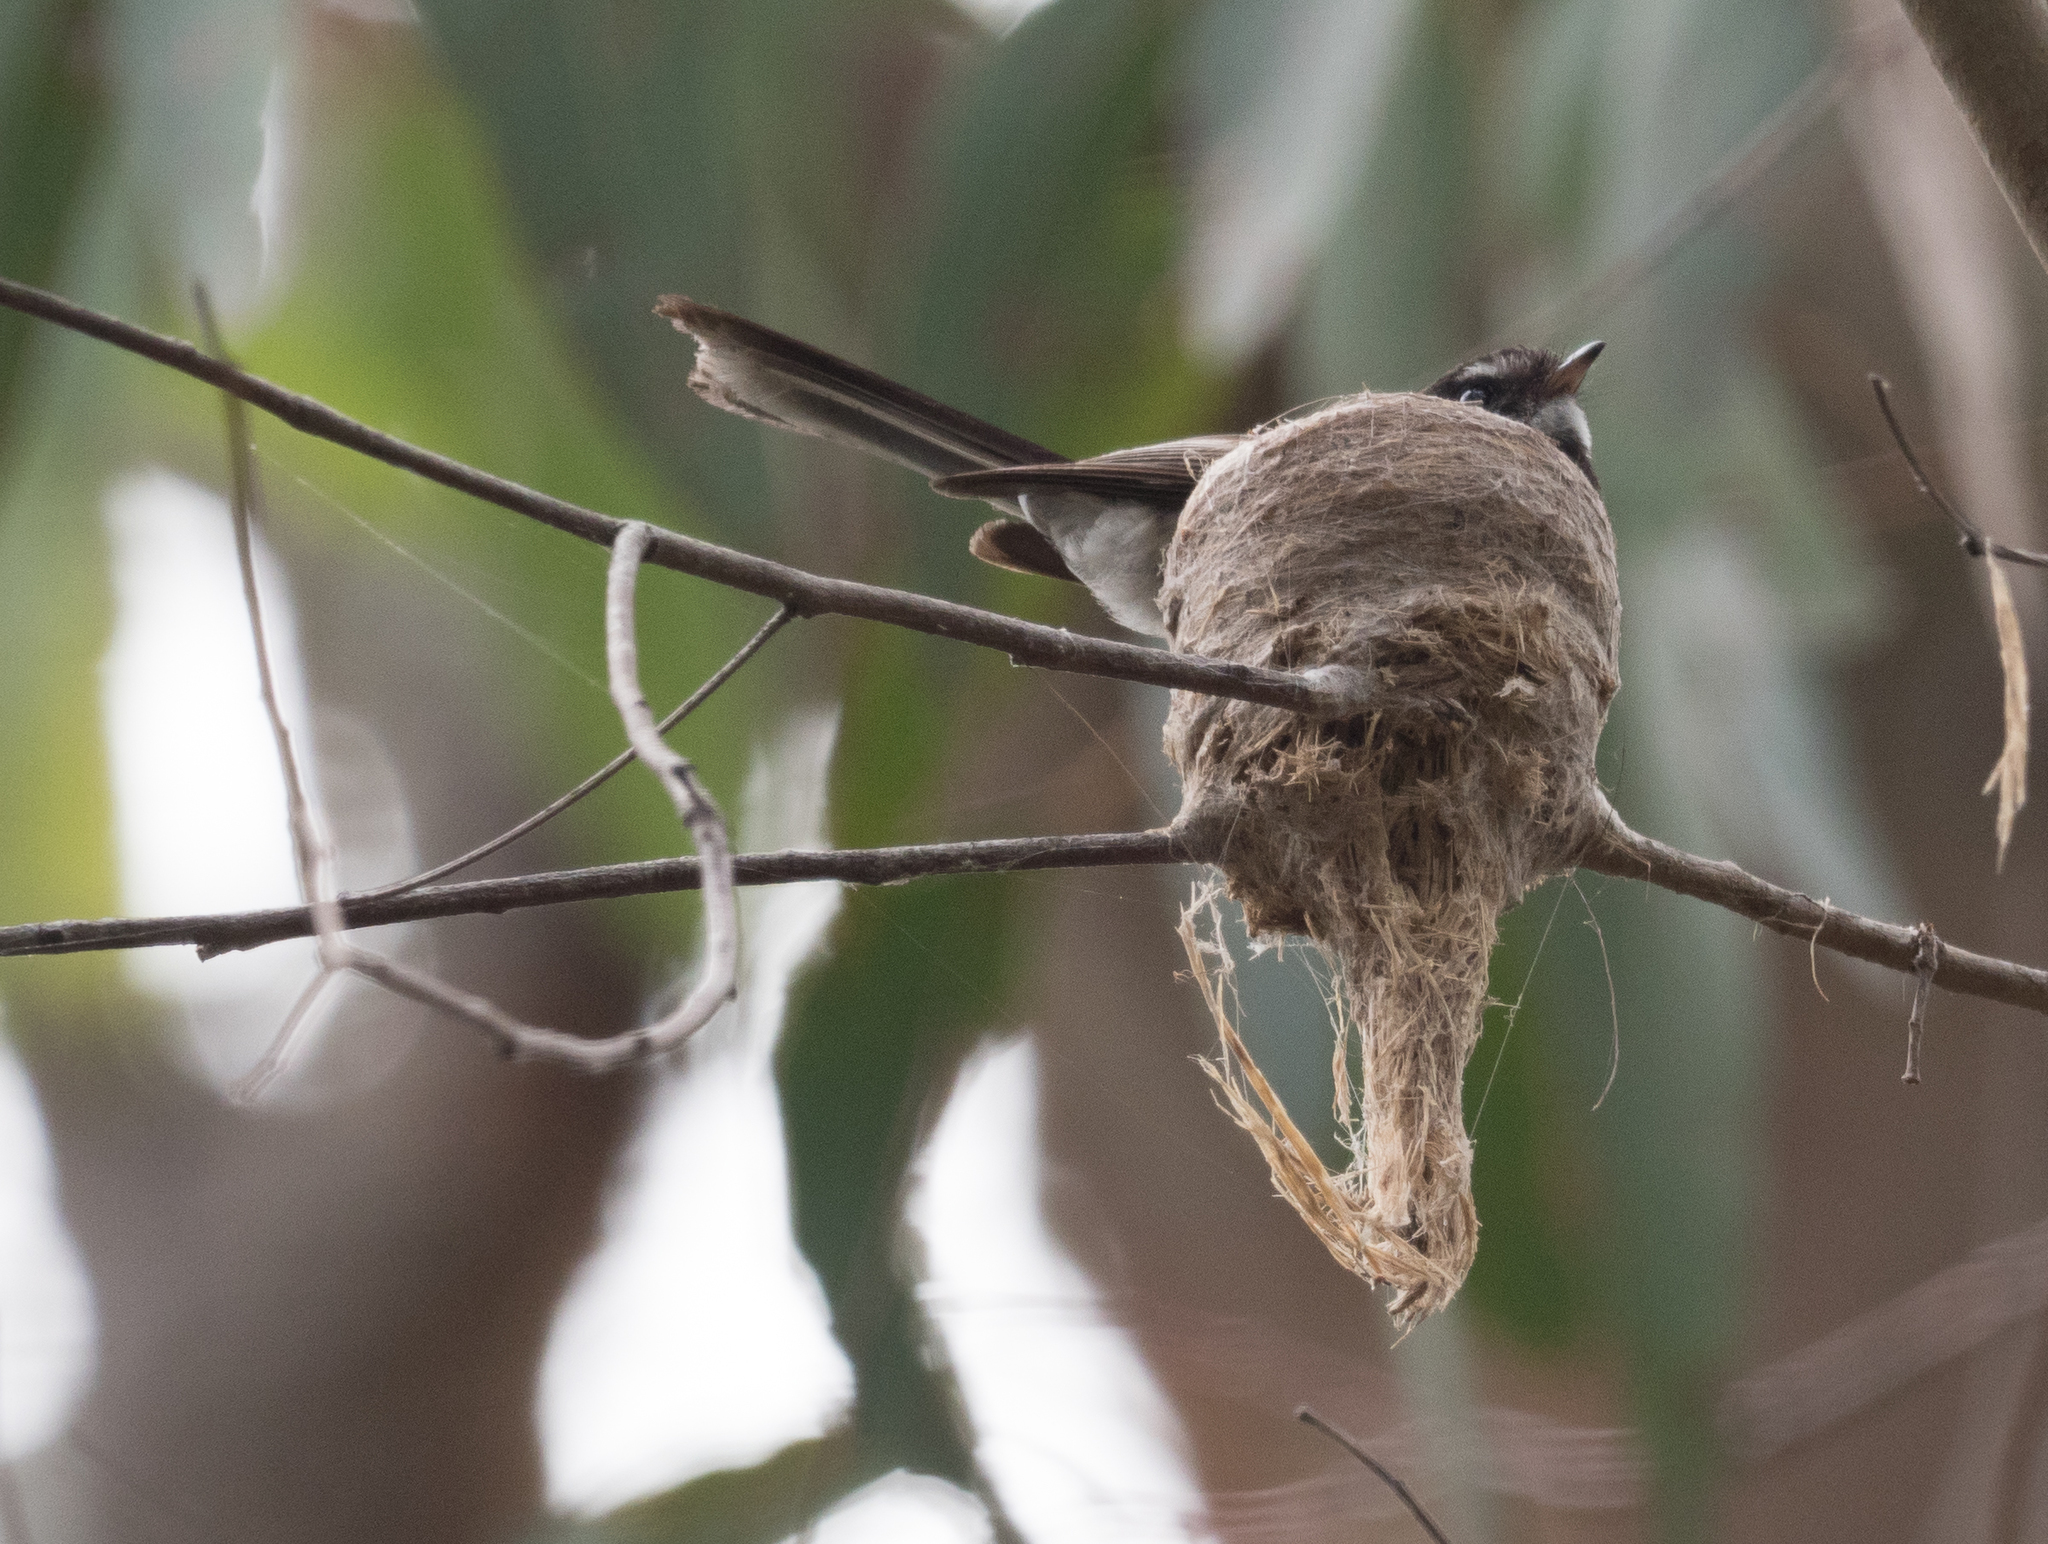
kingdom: Animalia
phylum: Chordata
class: Aves
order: Passeriformes
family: Rhipiduridae
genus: Rhipidura
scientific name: Rhipidura albiscapa
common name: Grey fantail
